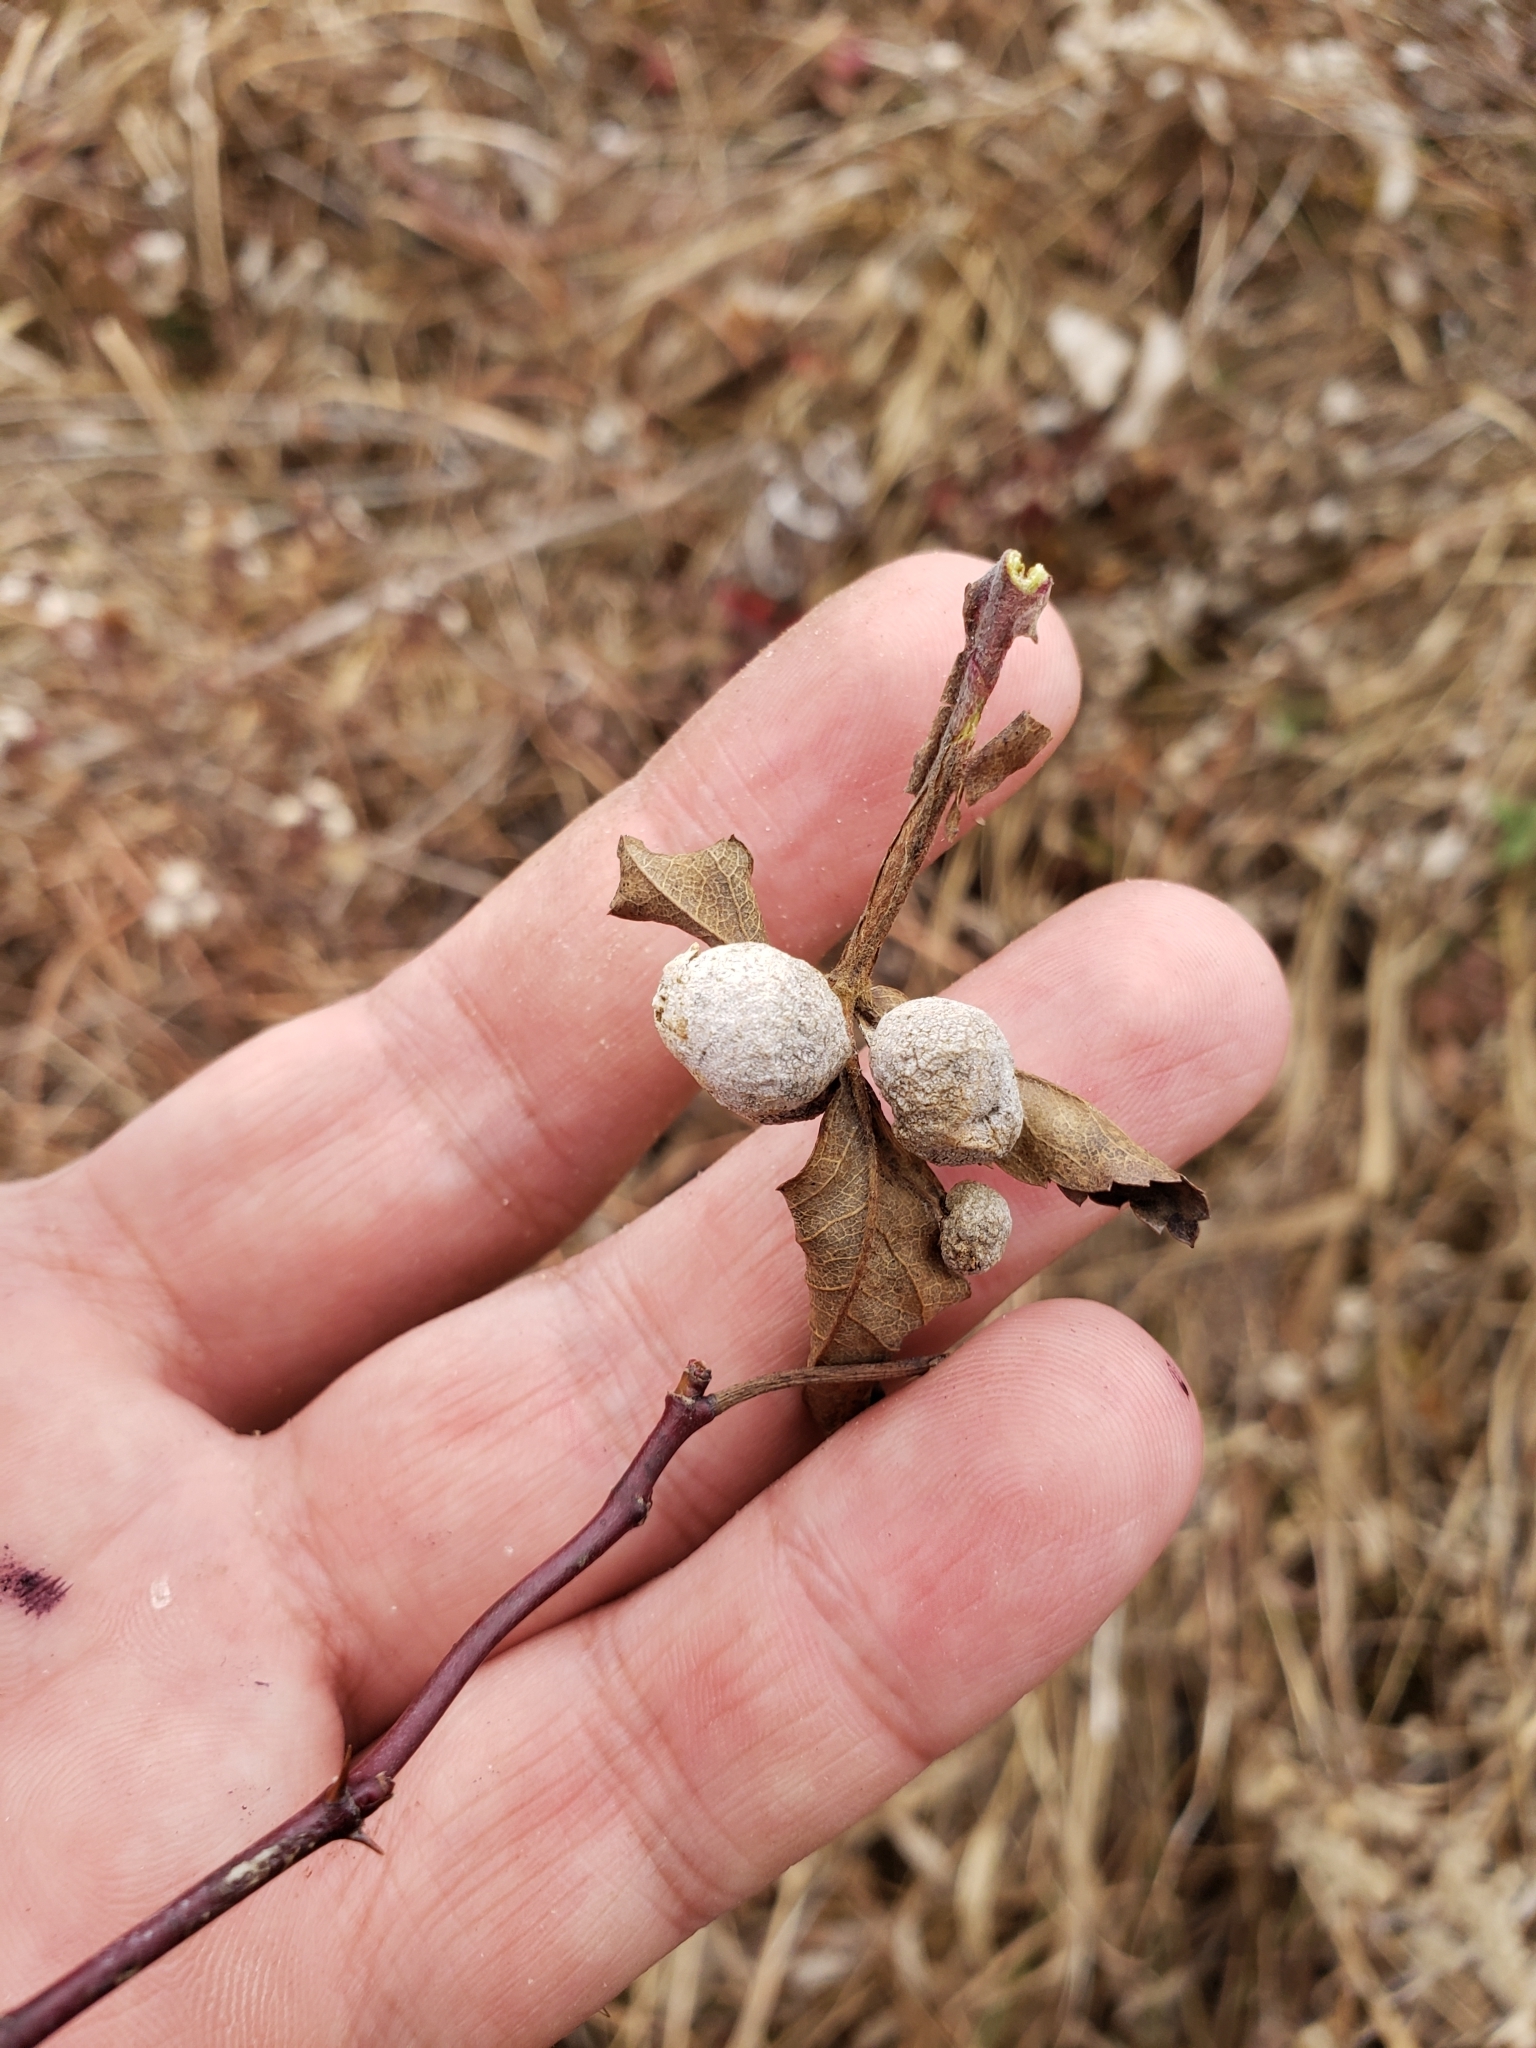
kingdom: Animalia
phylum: Arthropoda
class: Insecta
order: Hymenoptera
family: Cynipidae
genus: Diplolepis
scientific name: Diplolepis ignota
